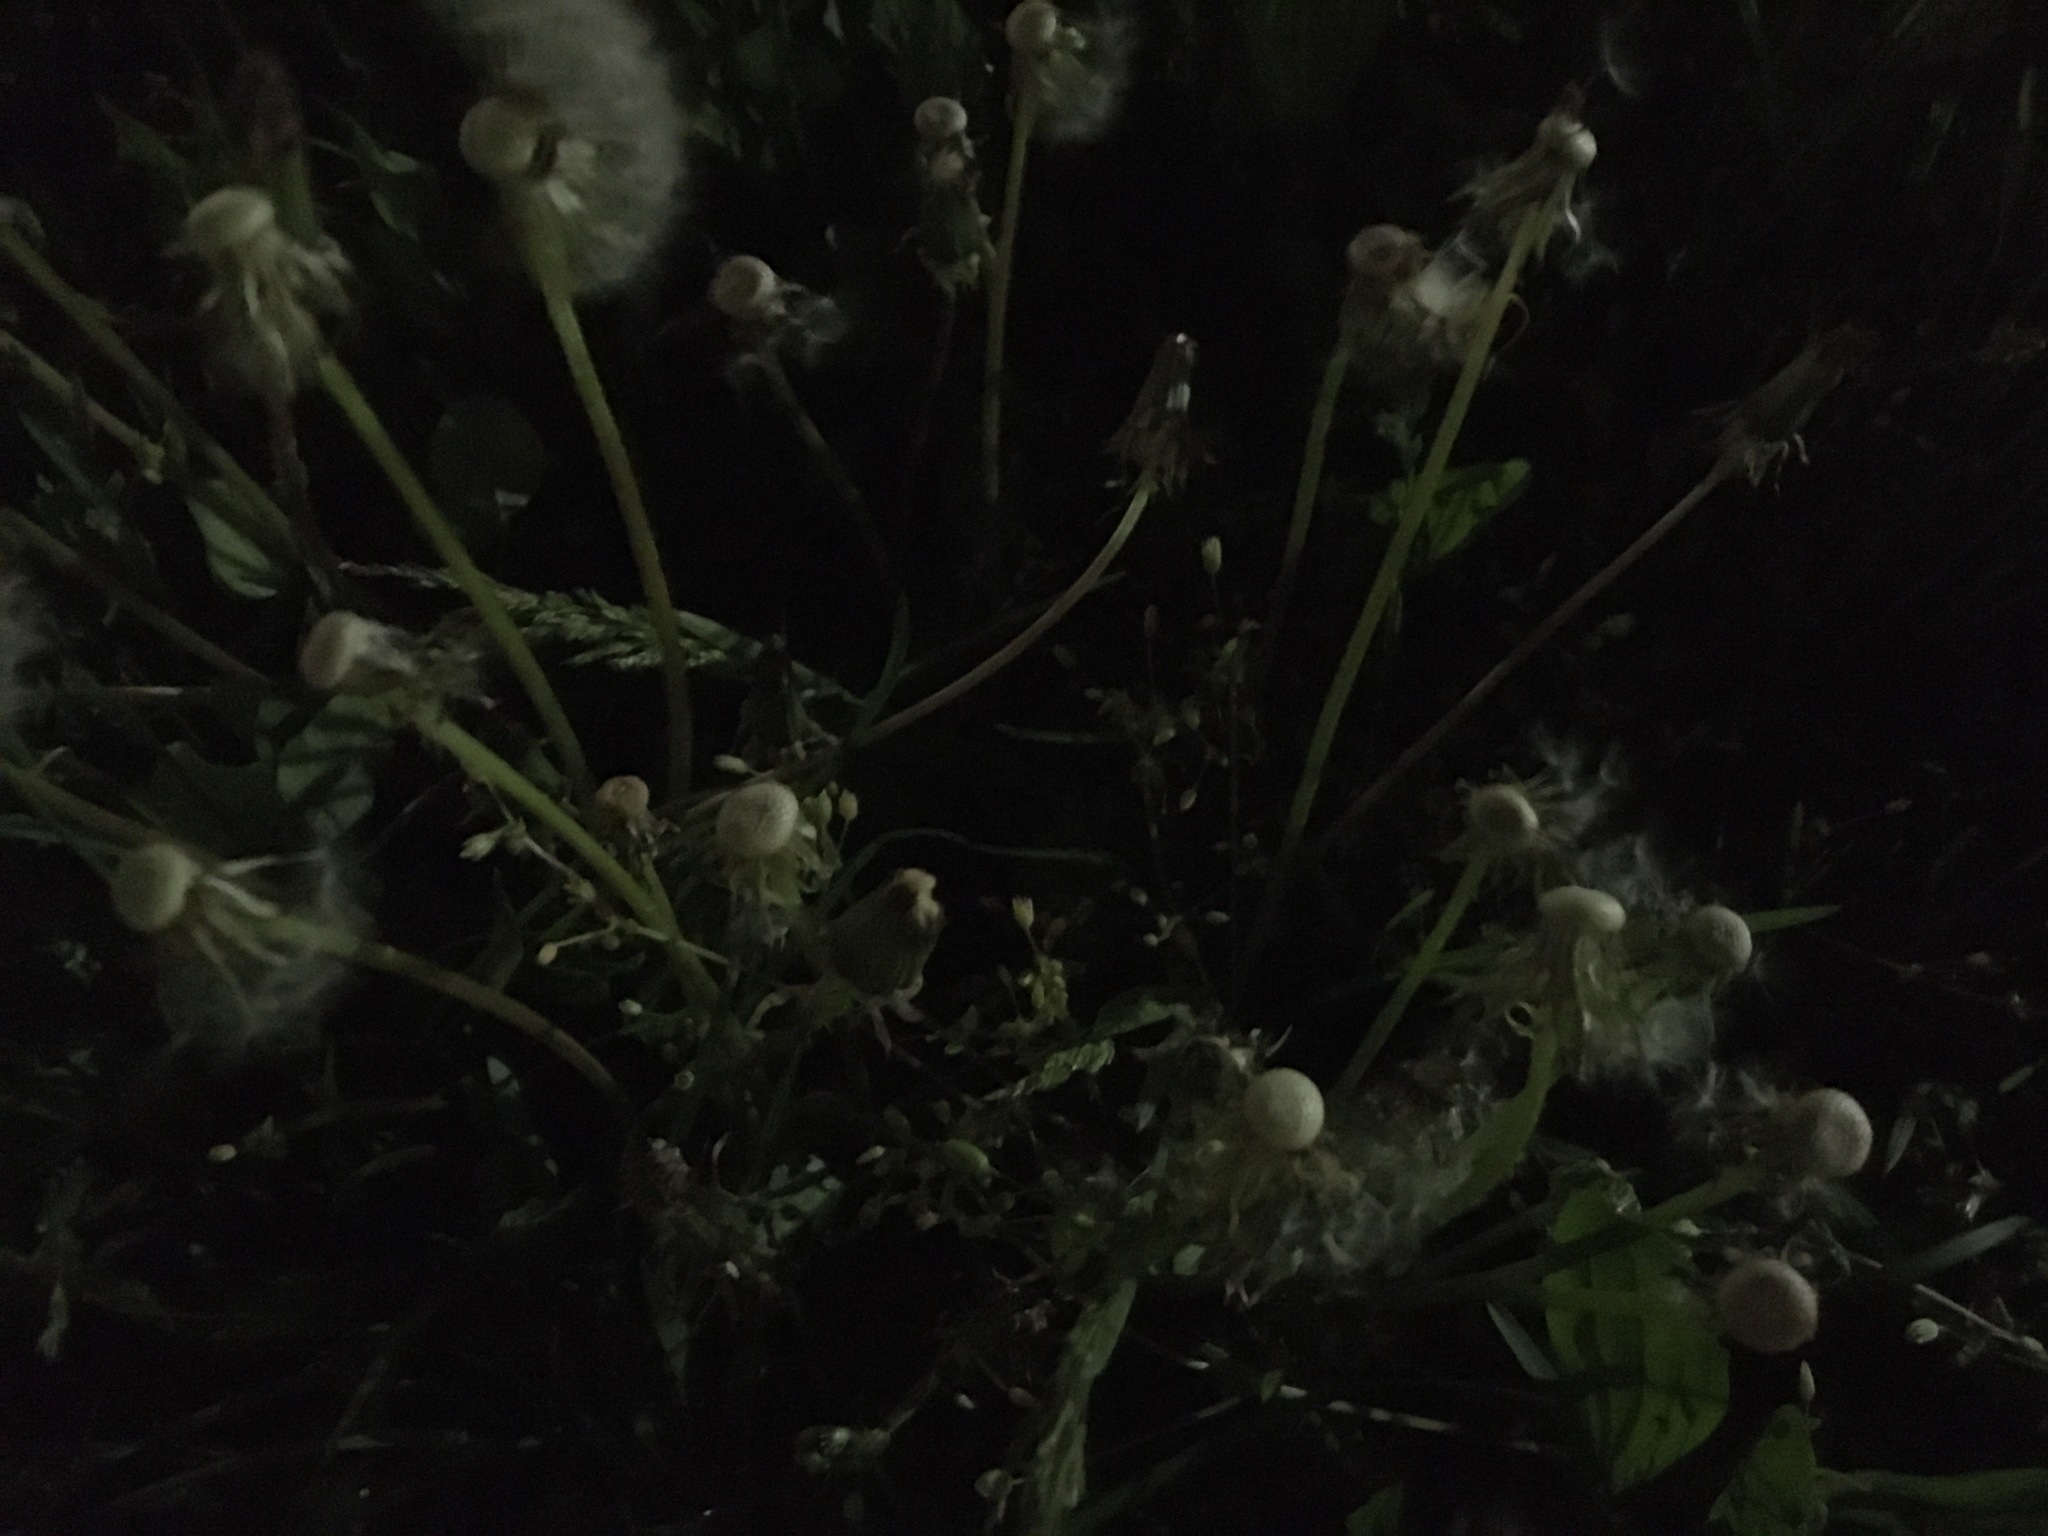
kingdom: Plantae
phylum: Tracheophyta
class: Magnoliopsida
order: Asterales
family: Asteraceae
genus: Taraxacum
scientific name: Taraxacum officinale
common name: Common dandelion
